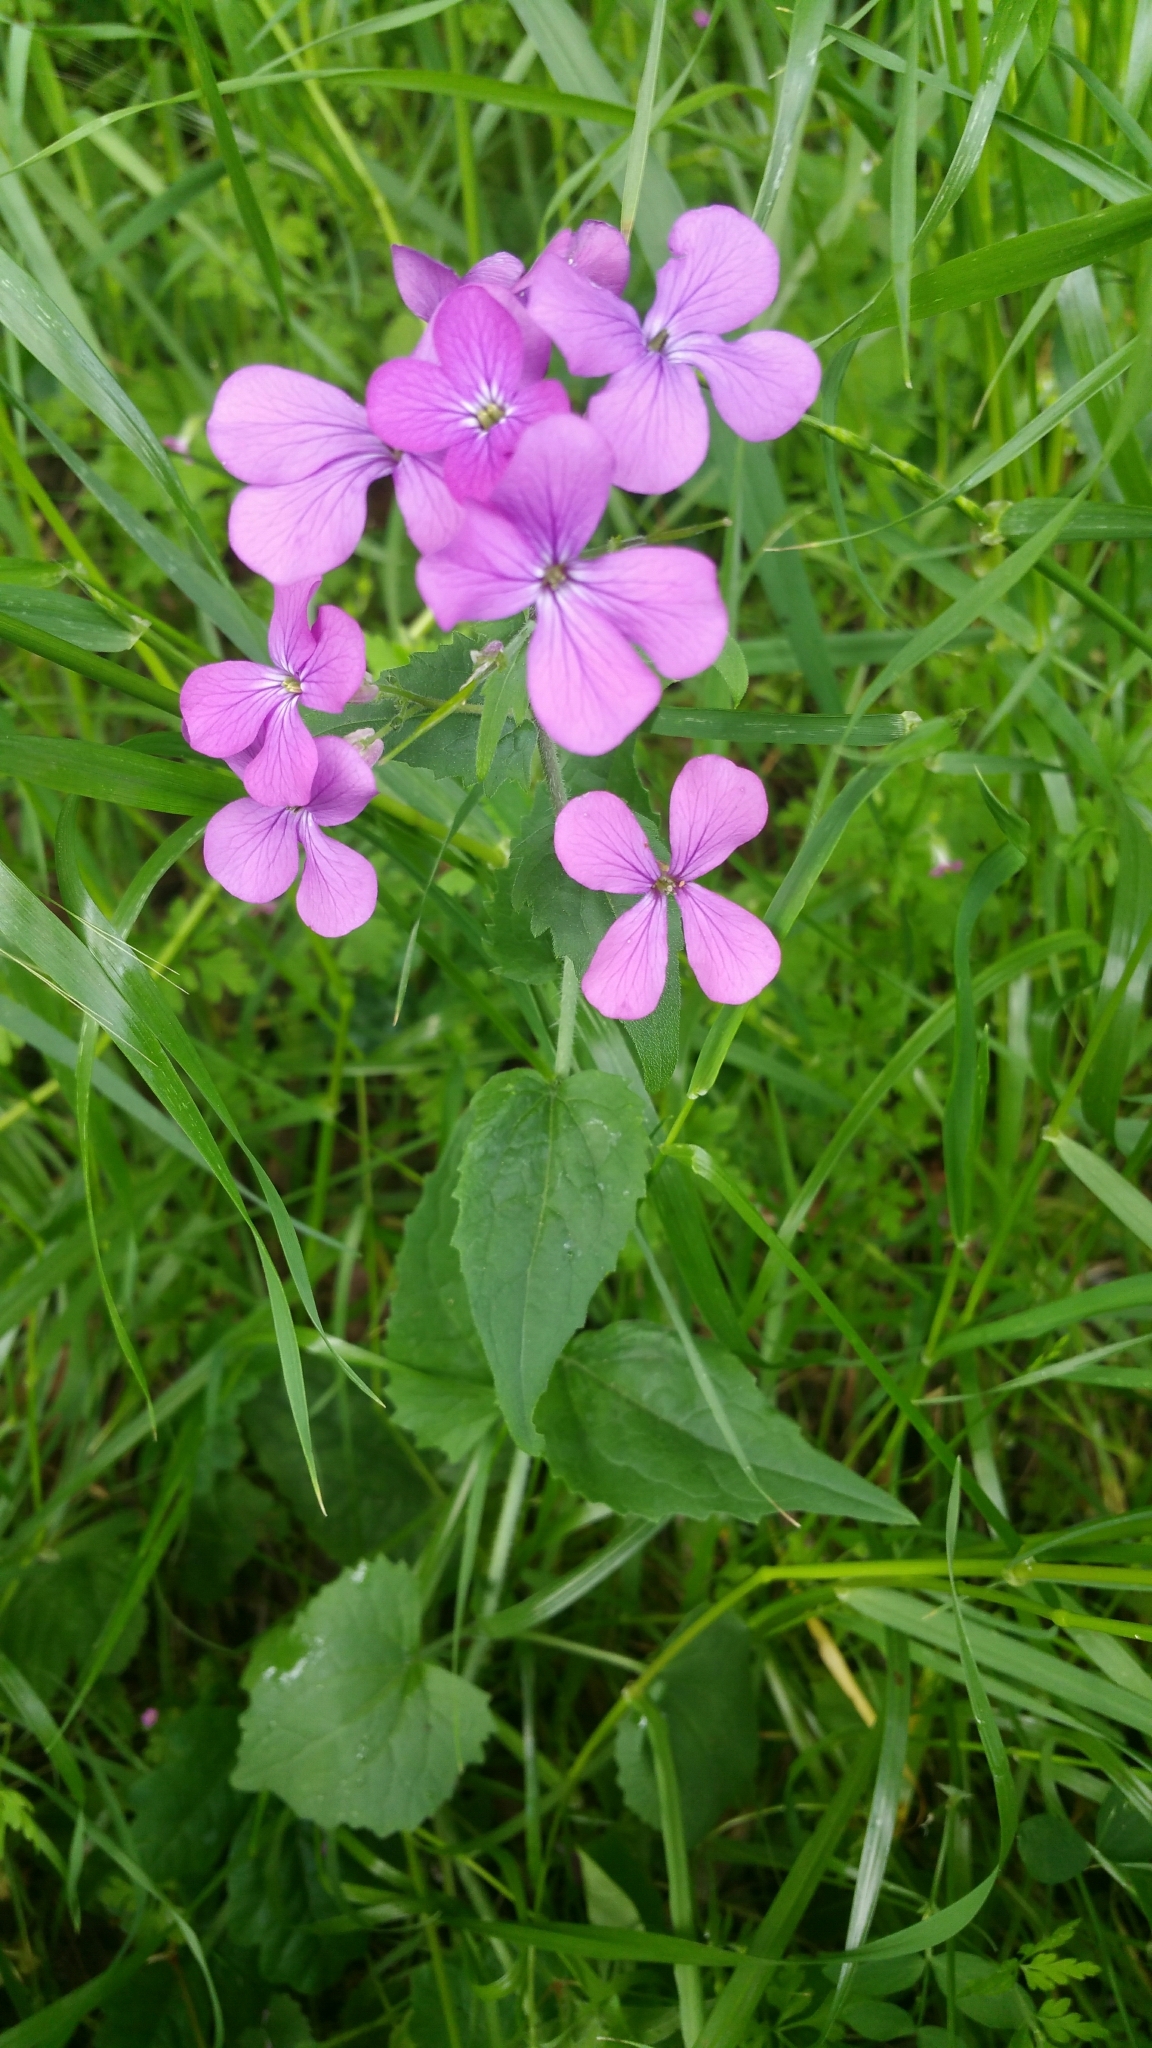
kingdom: Plantae
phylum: Tracheophyta
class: Magnoliopsida
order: Brassicales
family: Brassicaceae
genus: Lunaria
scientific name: Lunaria annua
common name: Honesty
